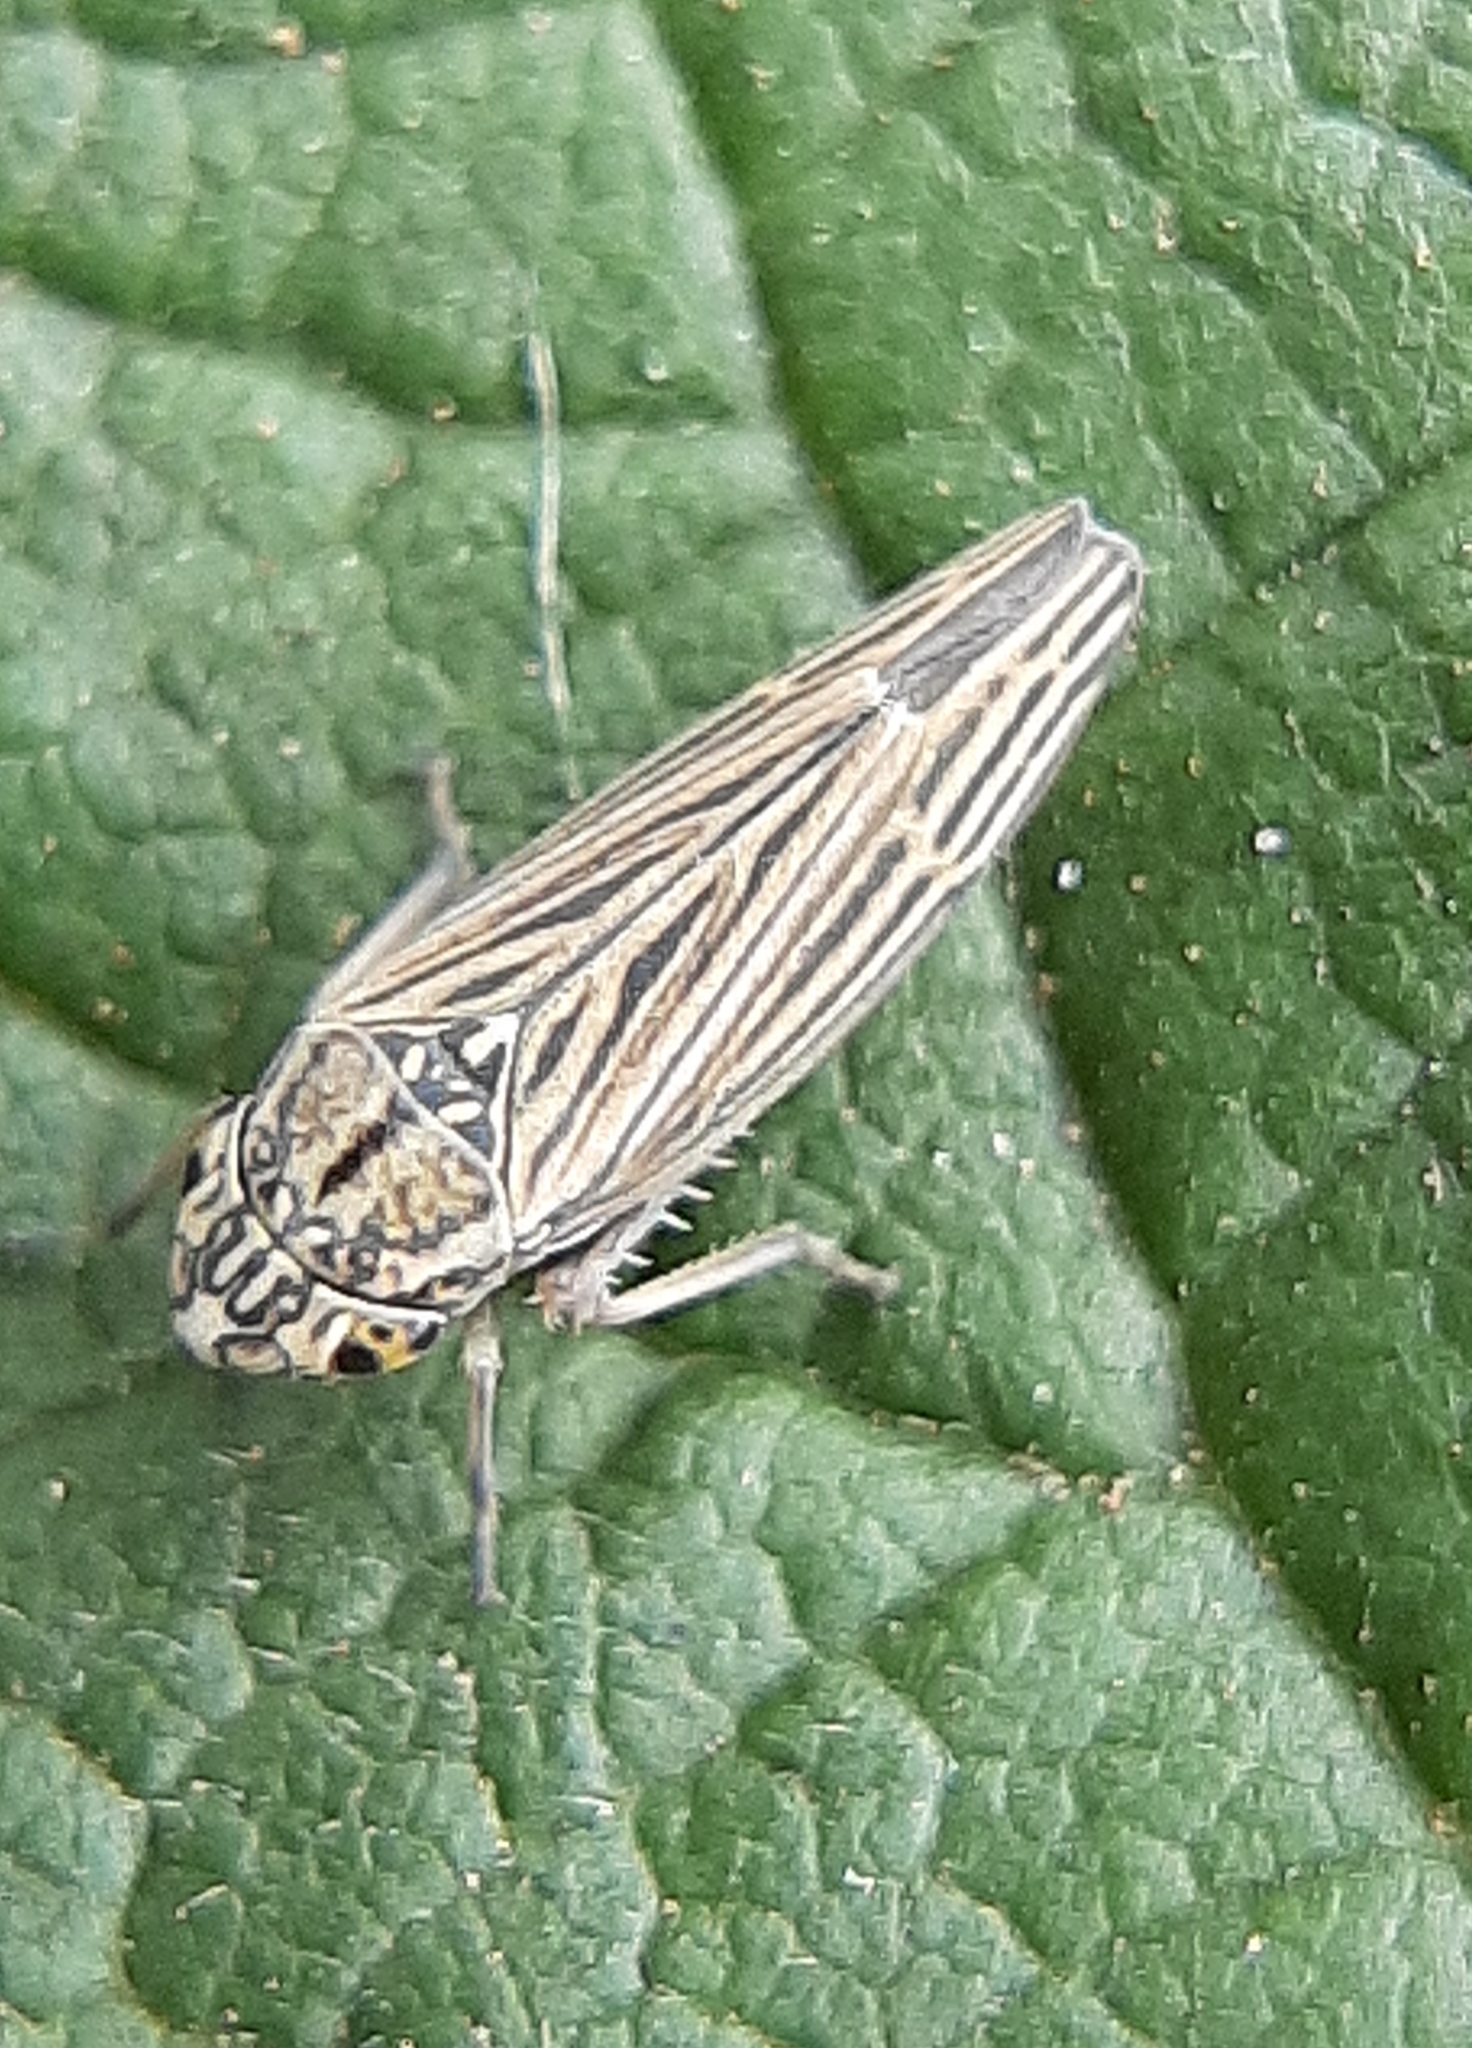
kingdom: Animalia
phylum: Arthropoda
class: Insecta
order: Hemiptera
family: Cicadellidae
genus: Neokolla
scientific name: Neokolla hieroglyphica
